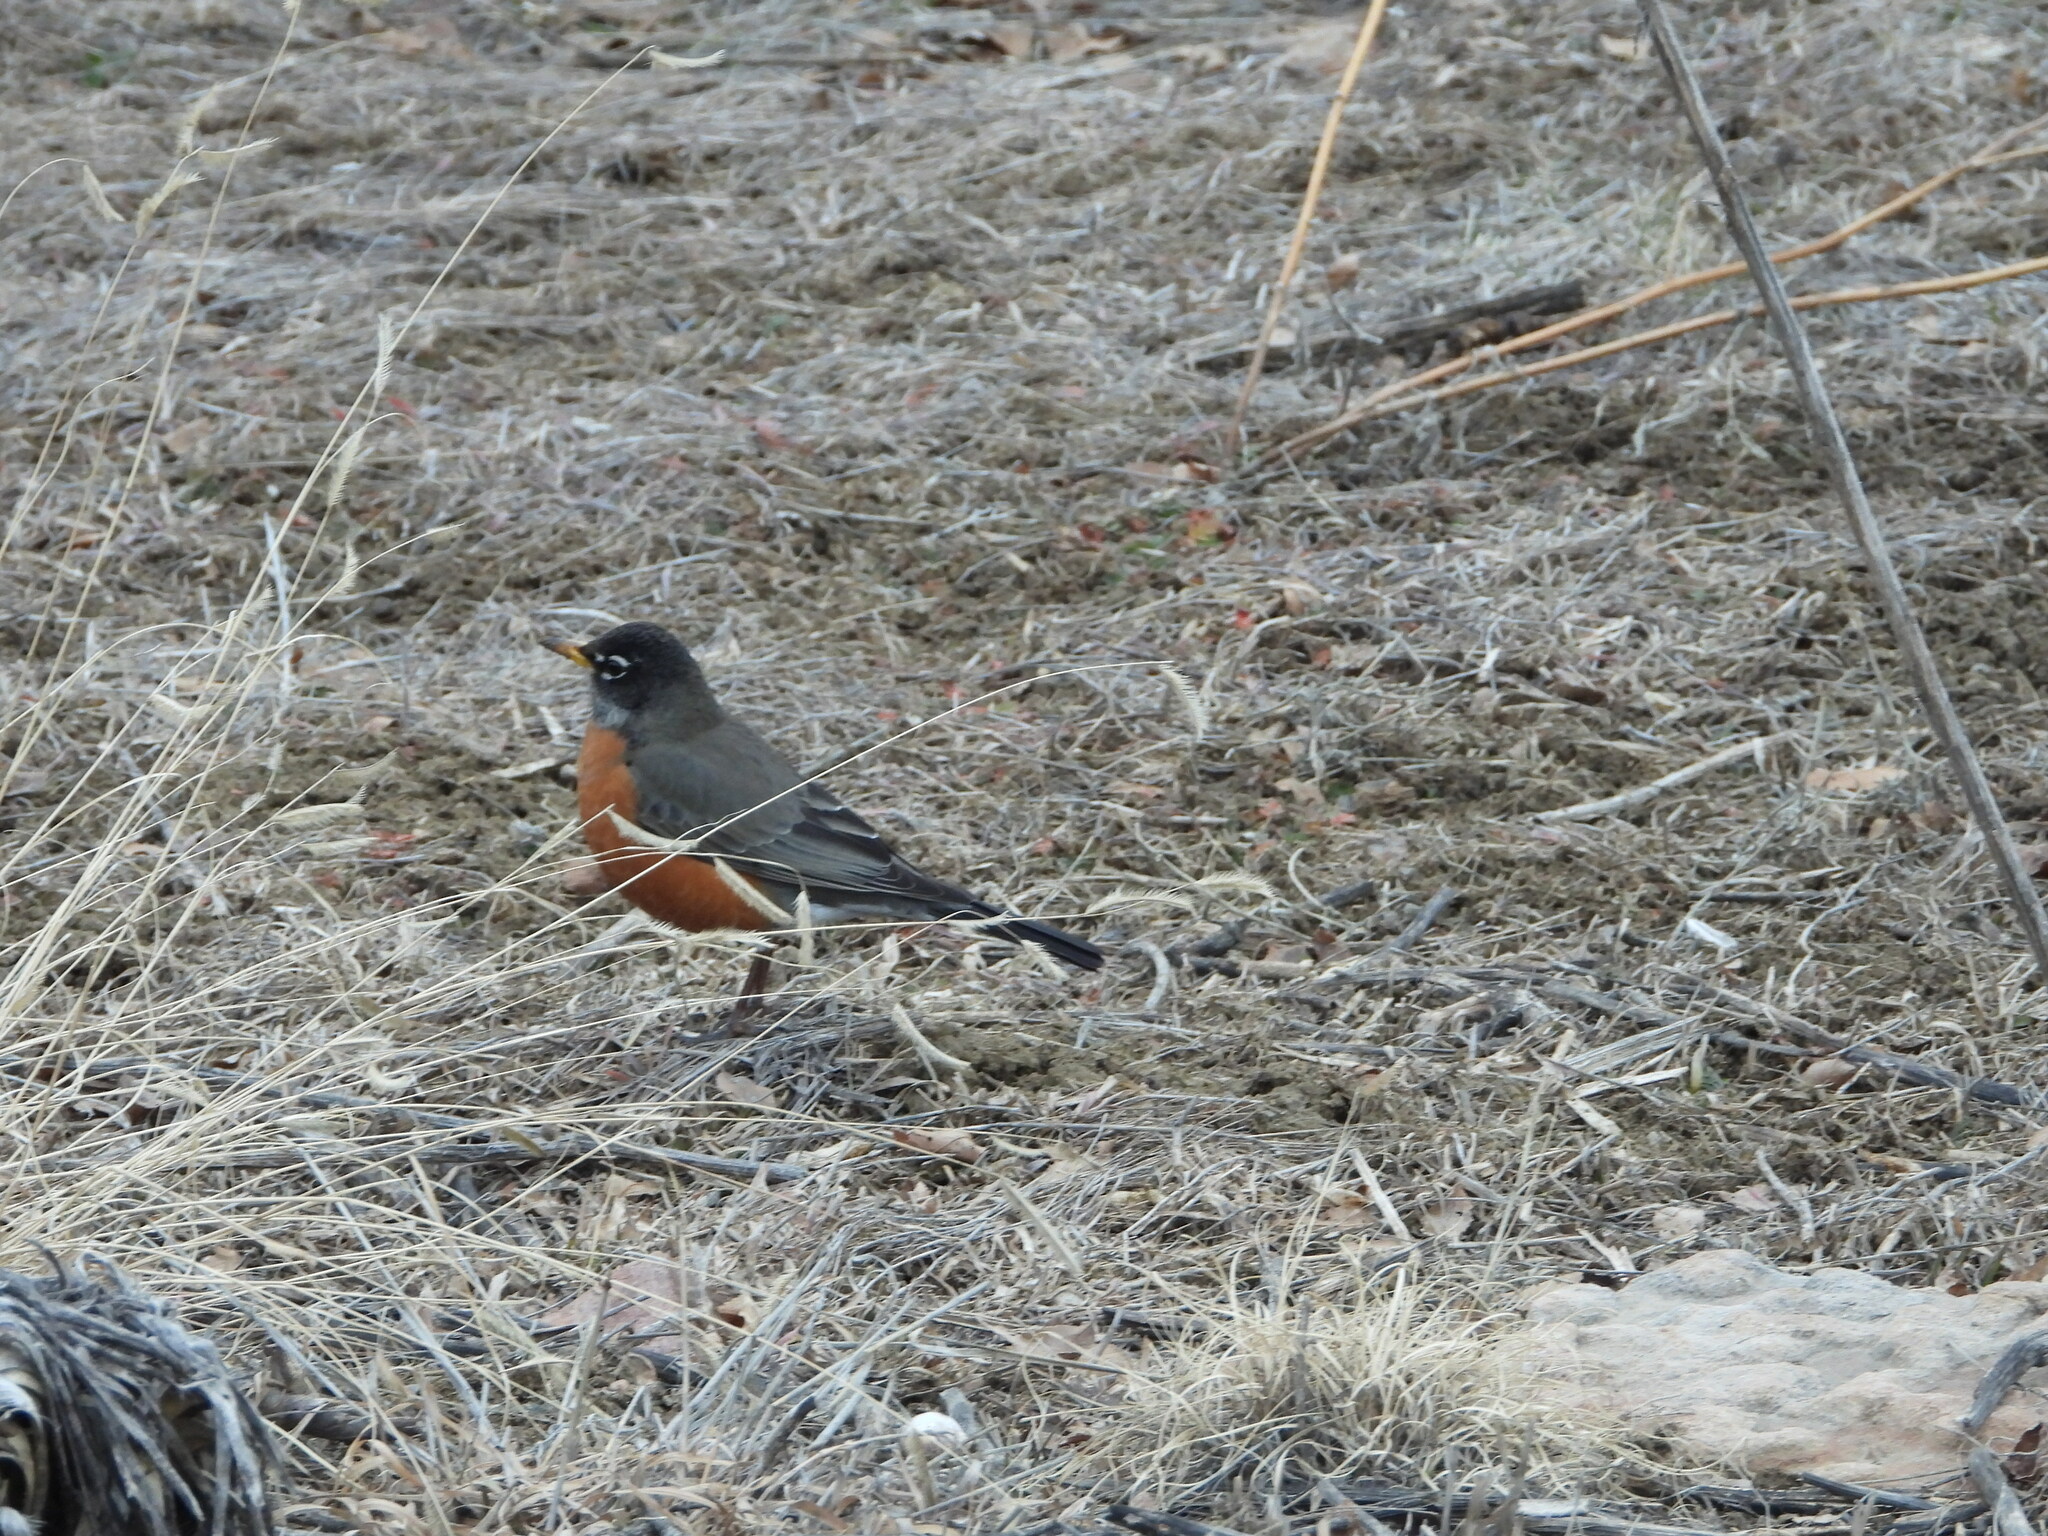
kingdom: Animalia
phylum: Chordata
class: Aves
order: Passeriformes
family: Turdidae
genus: Turdus
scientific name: Turdus migratorius
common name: American robin
